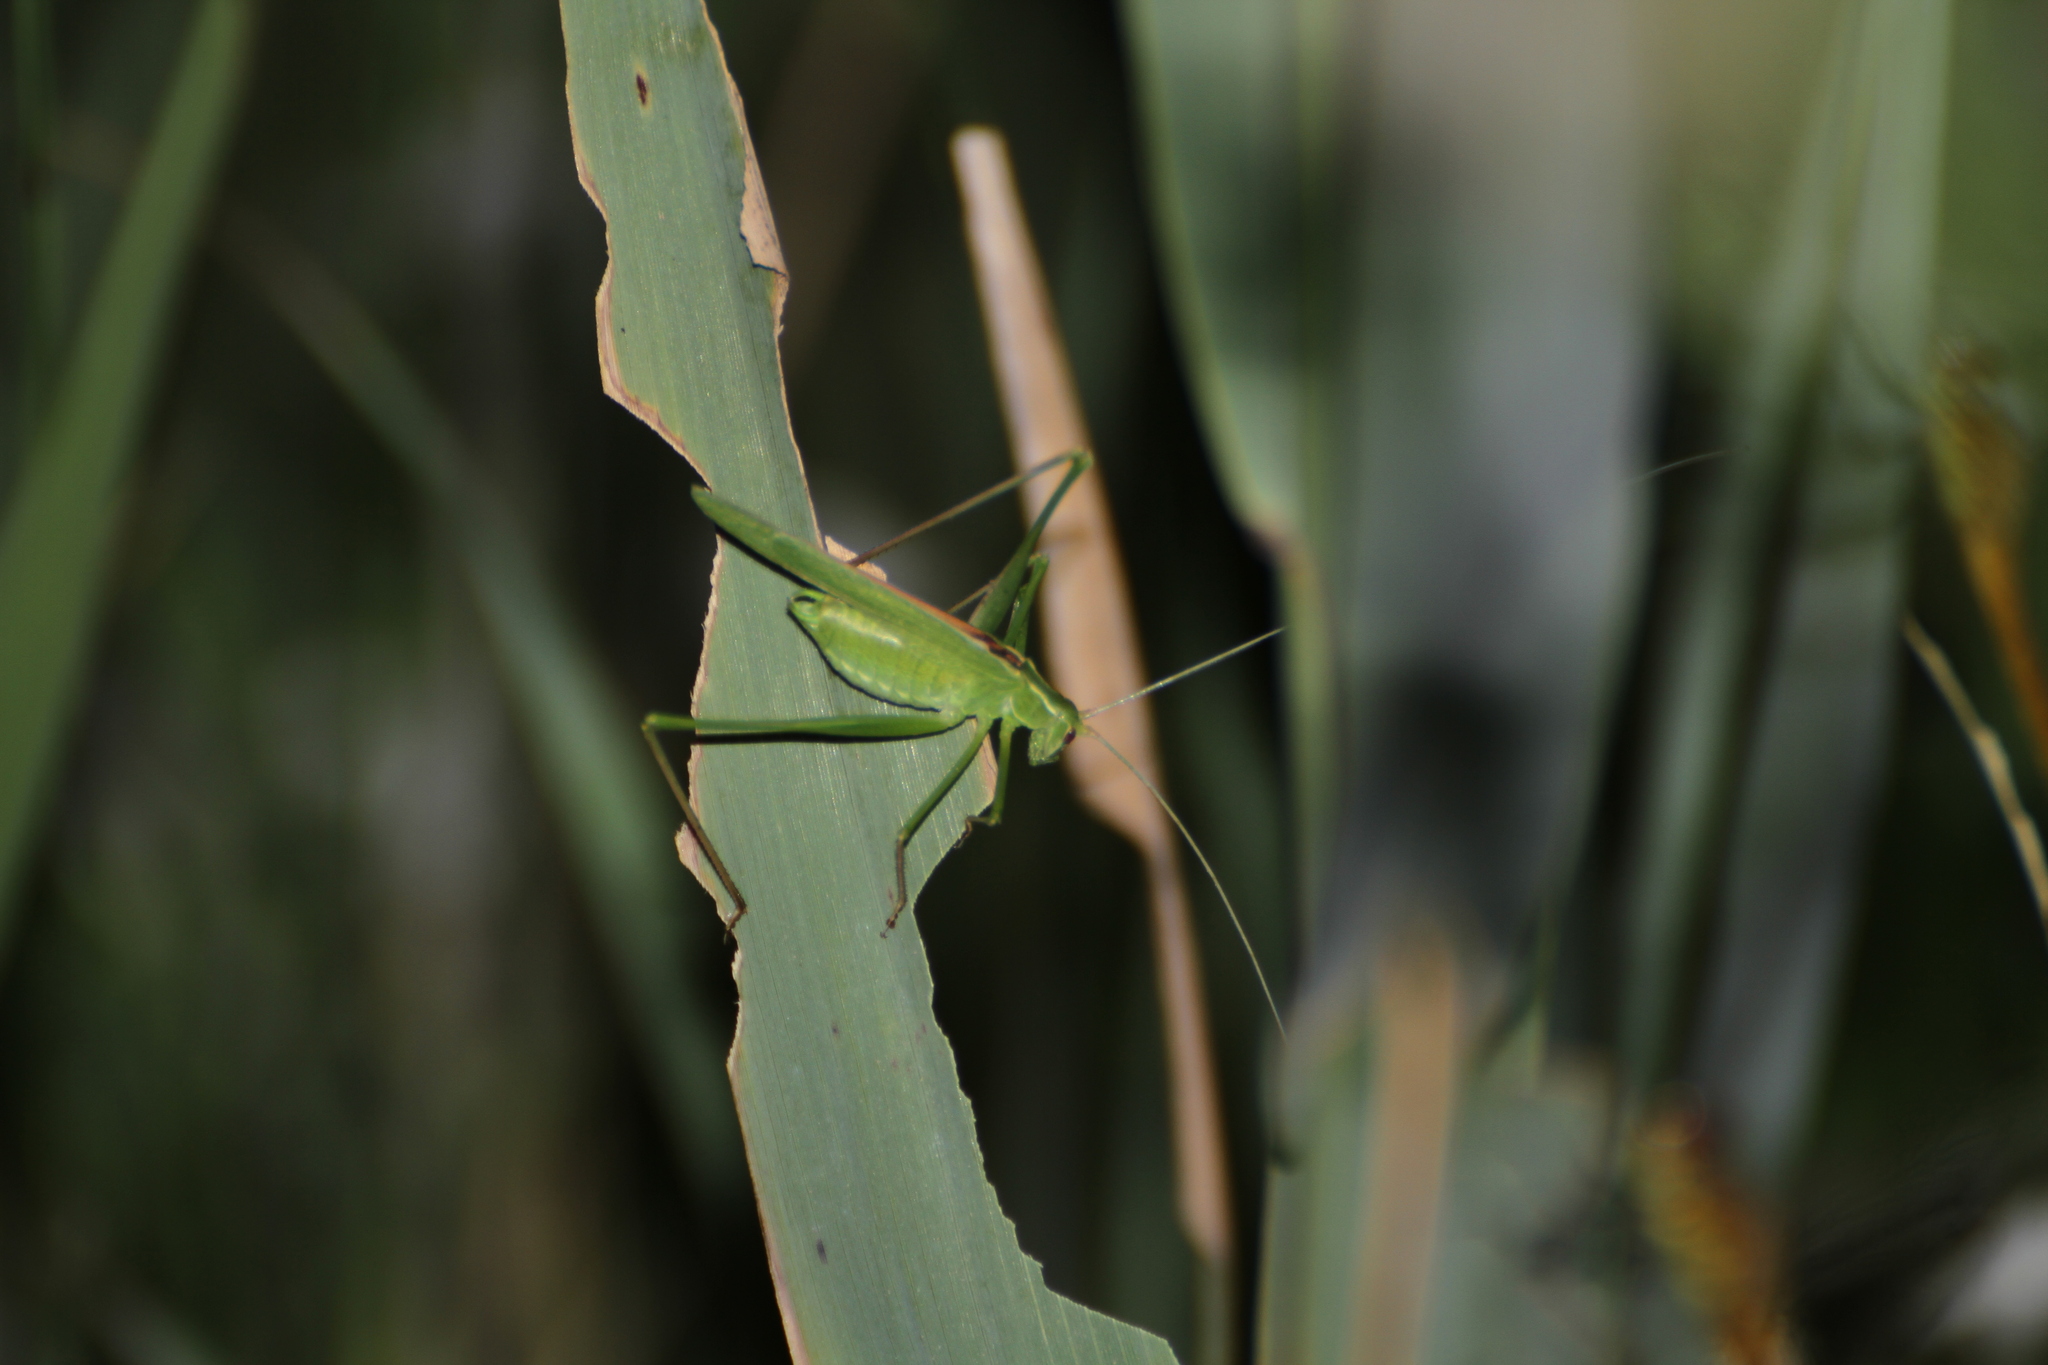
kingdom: Animalia
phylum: Arthropoda
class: Insecta
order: Orthoptera
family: Tettigoniidae
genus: Tylopsis
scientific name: Tylopsis lilifolia
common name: Lily bush-cricket
